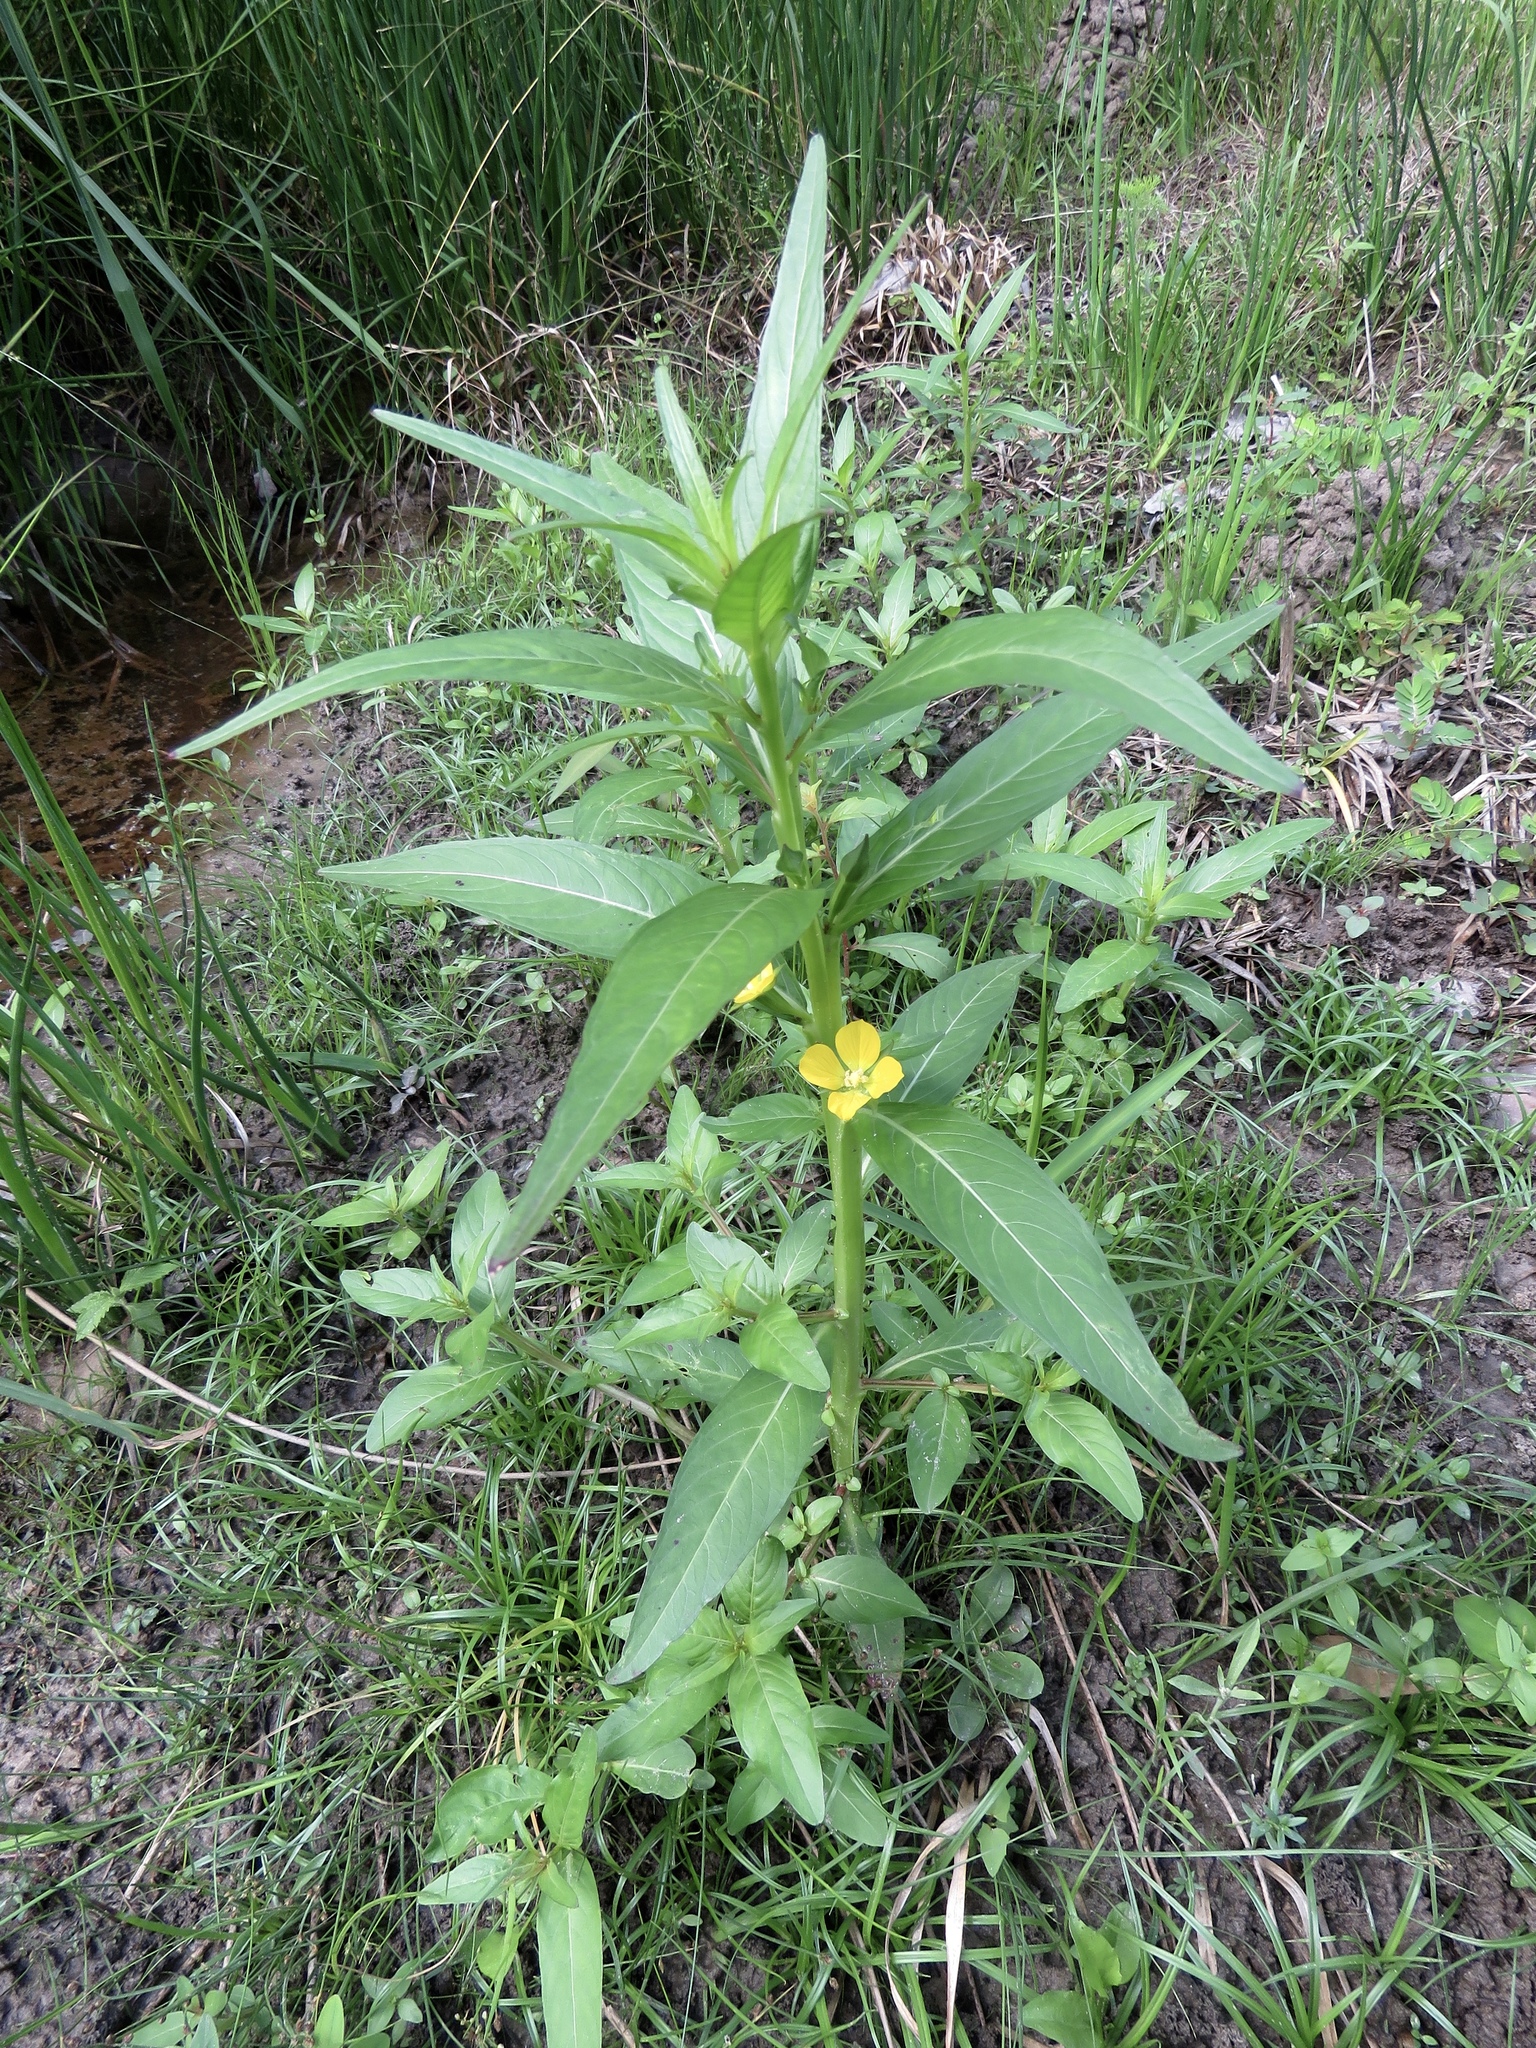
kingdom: Plantae
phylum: Tracheophyta
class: Magnoliopsida
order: Myrtales
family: Onagraceae
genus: Ludwigia
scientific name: Ludwigia decurrens
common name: Winged water-primrose
